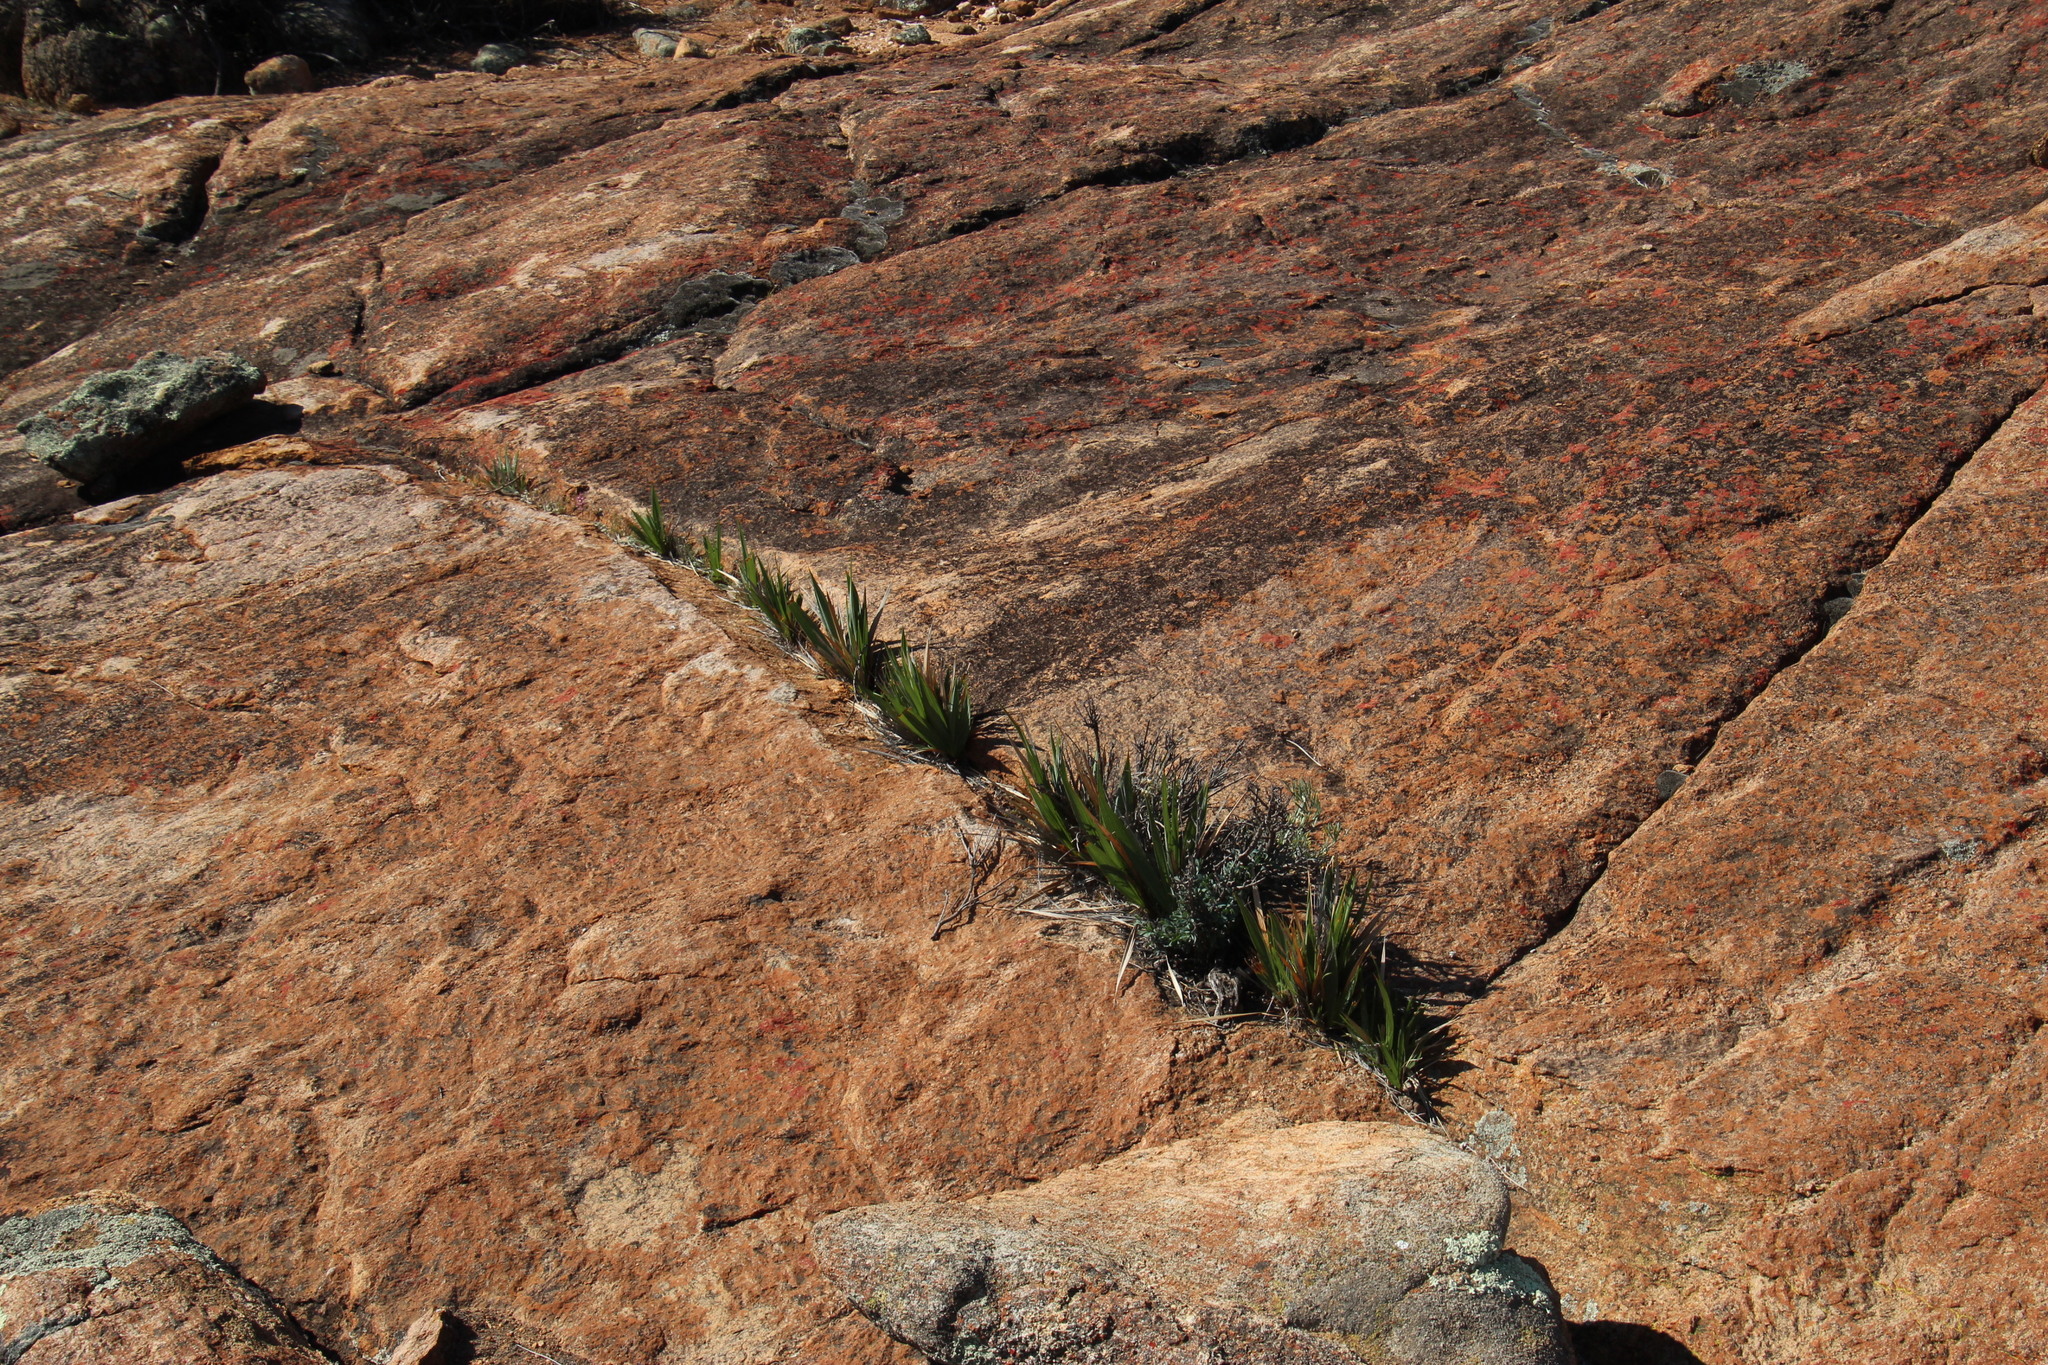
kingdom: Plantae
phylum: Tracheophyta
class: Liliopsida
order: Asparagales
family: Iridaceae
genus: Babiana
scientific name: Babiana dregei
